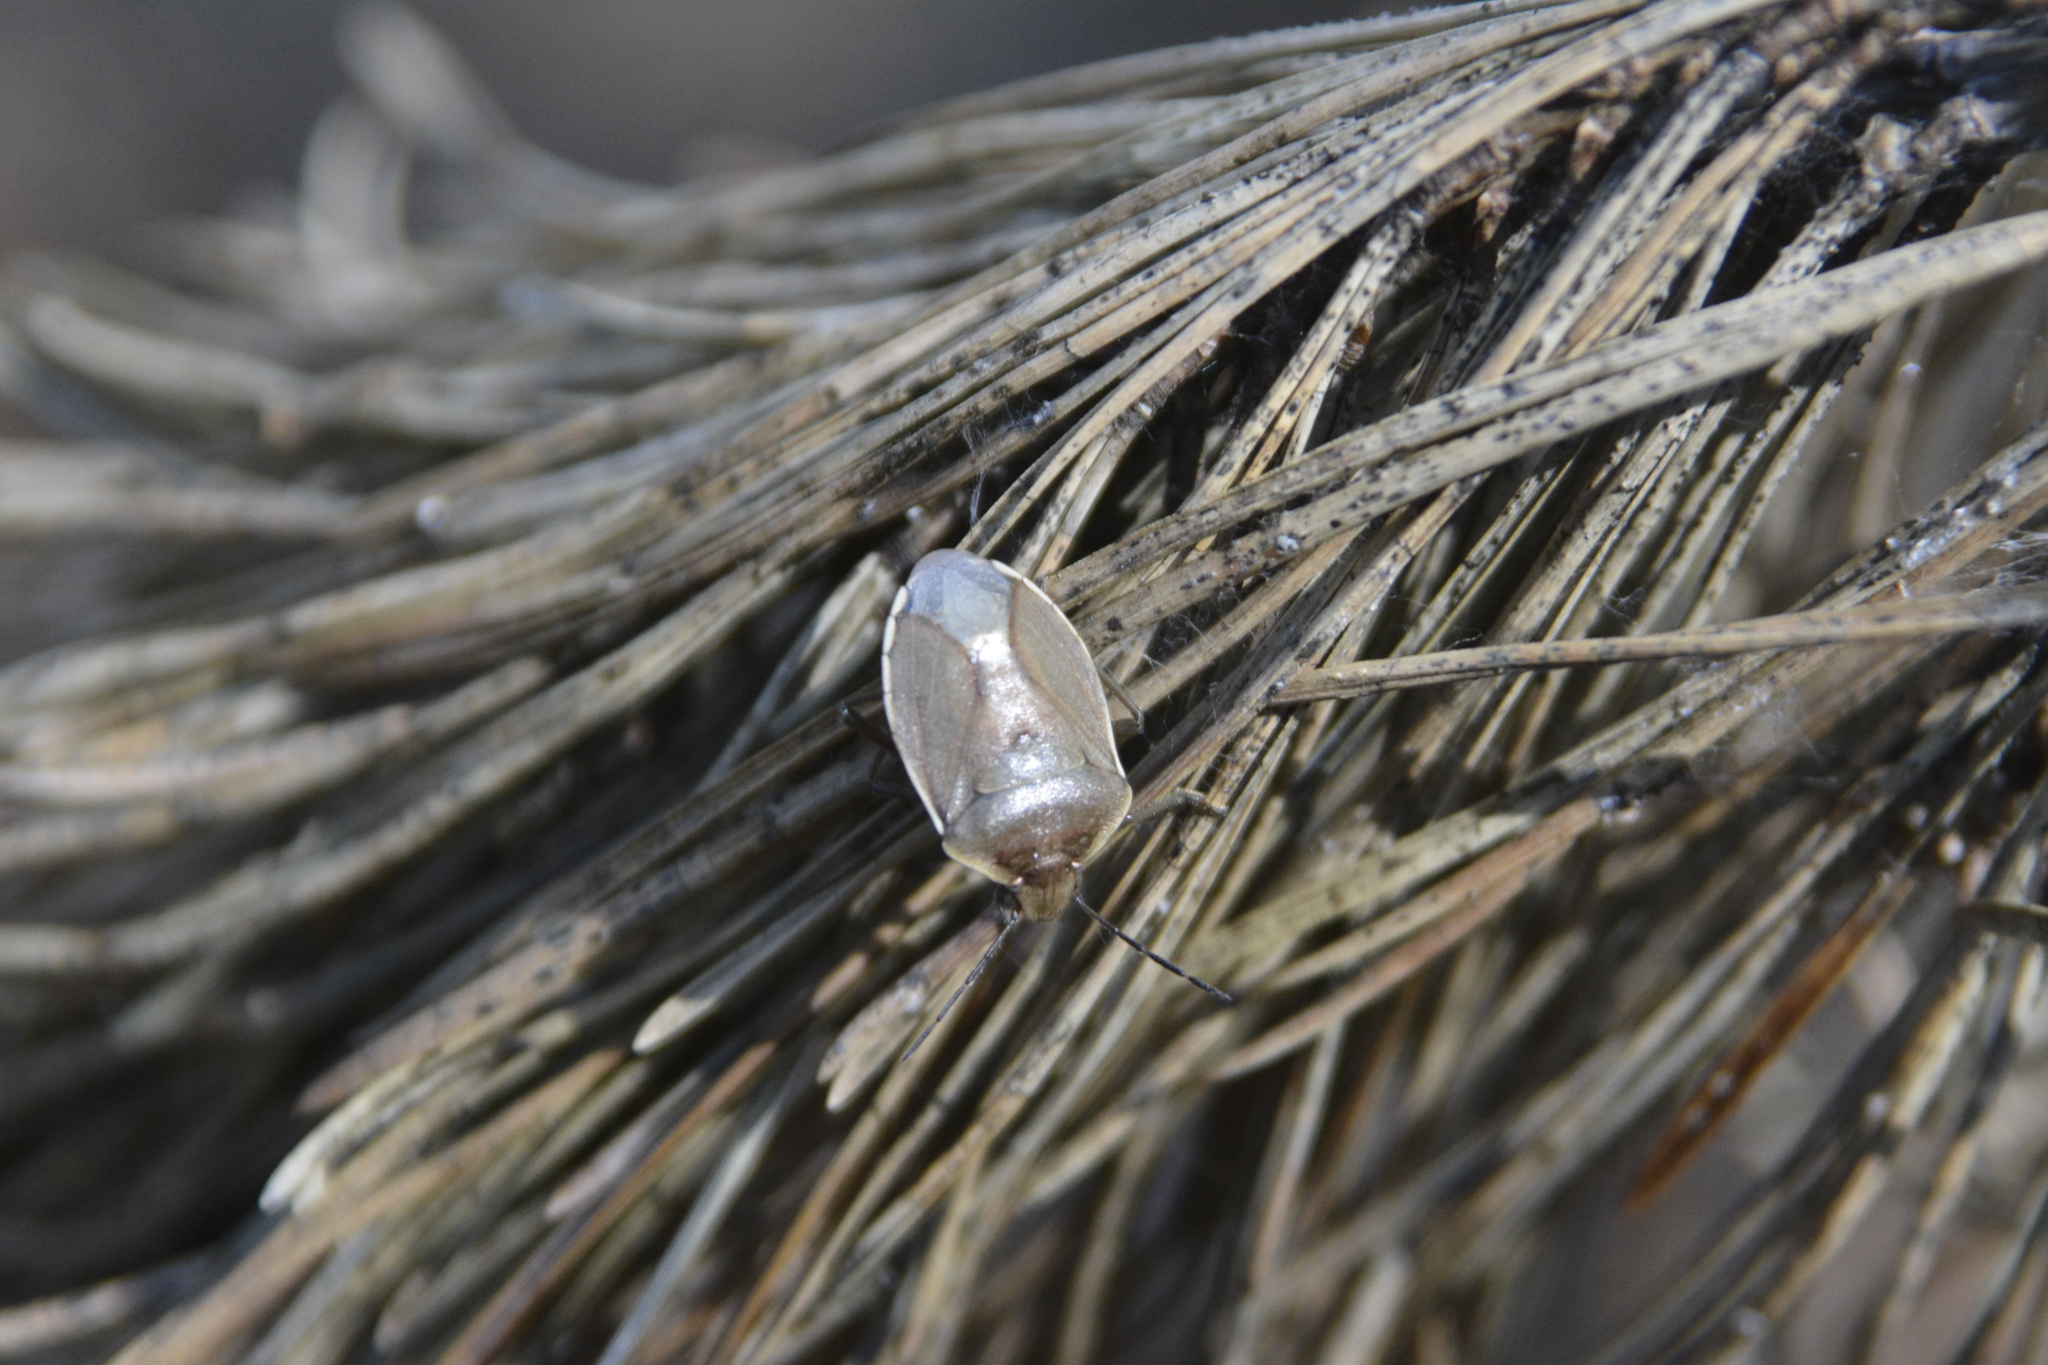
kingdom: Animalia
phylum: Arthropoda
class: Insecta
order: Hemiptera
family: Pentatomidae
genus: Chlorochroa
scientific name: Chlorochroa pinicola
